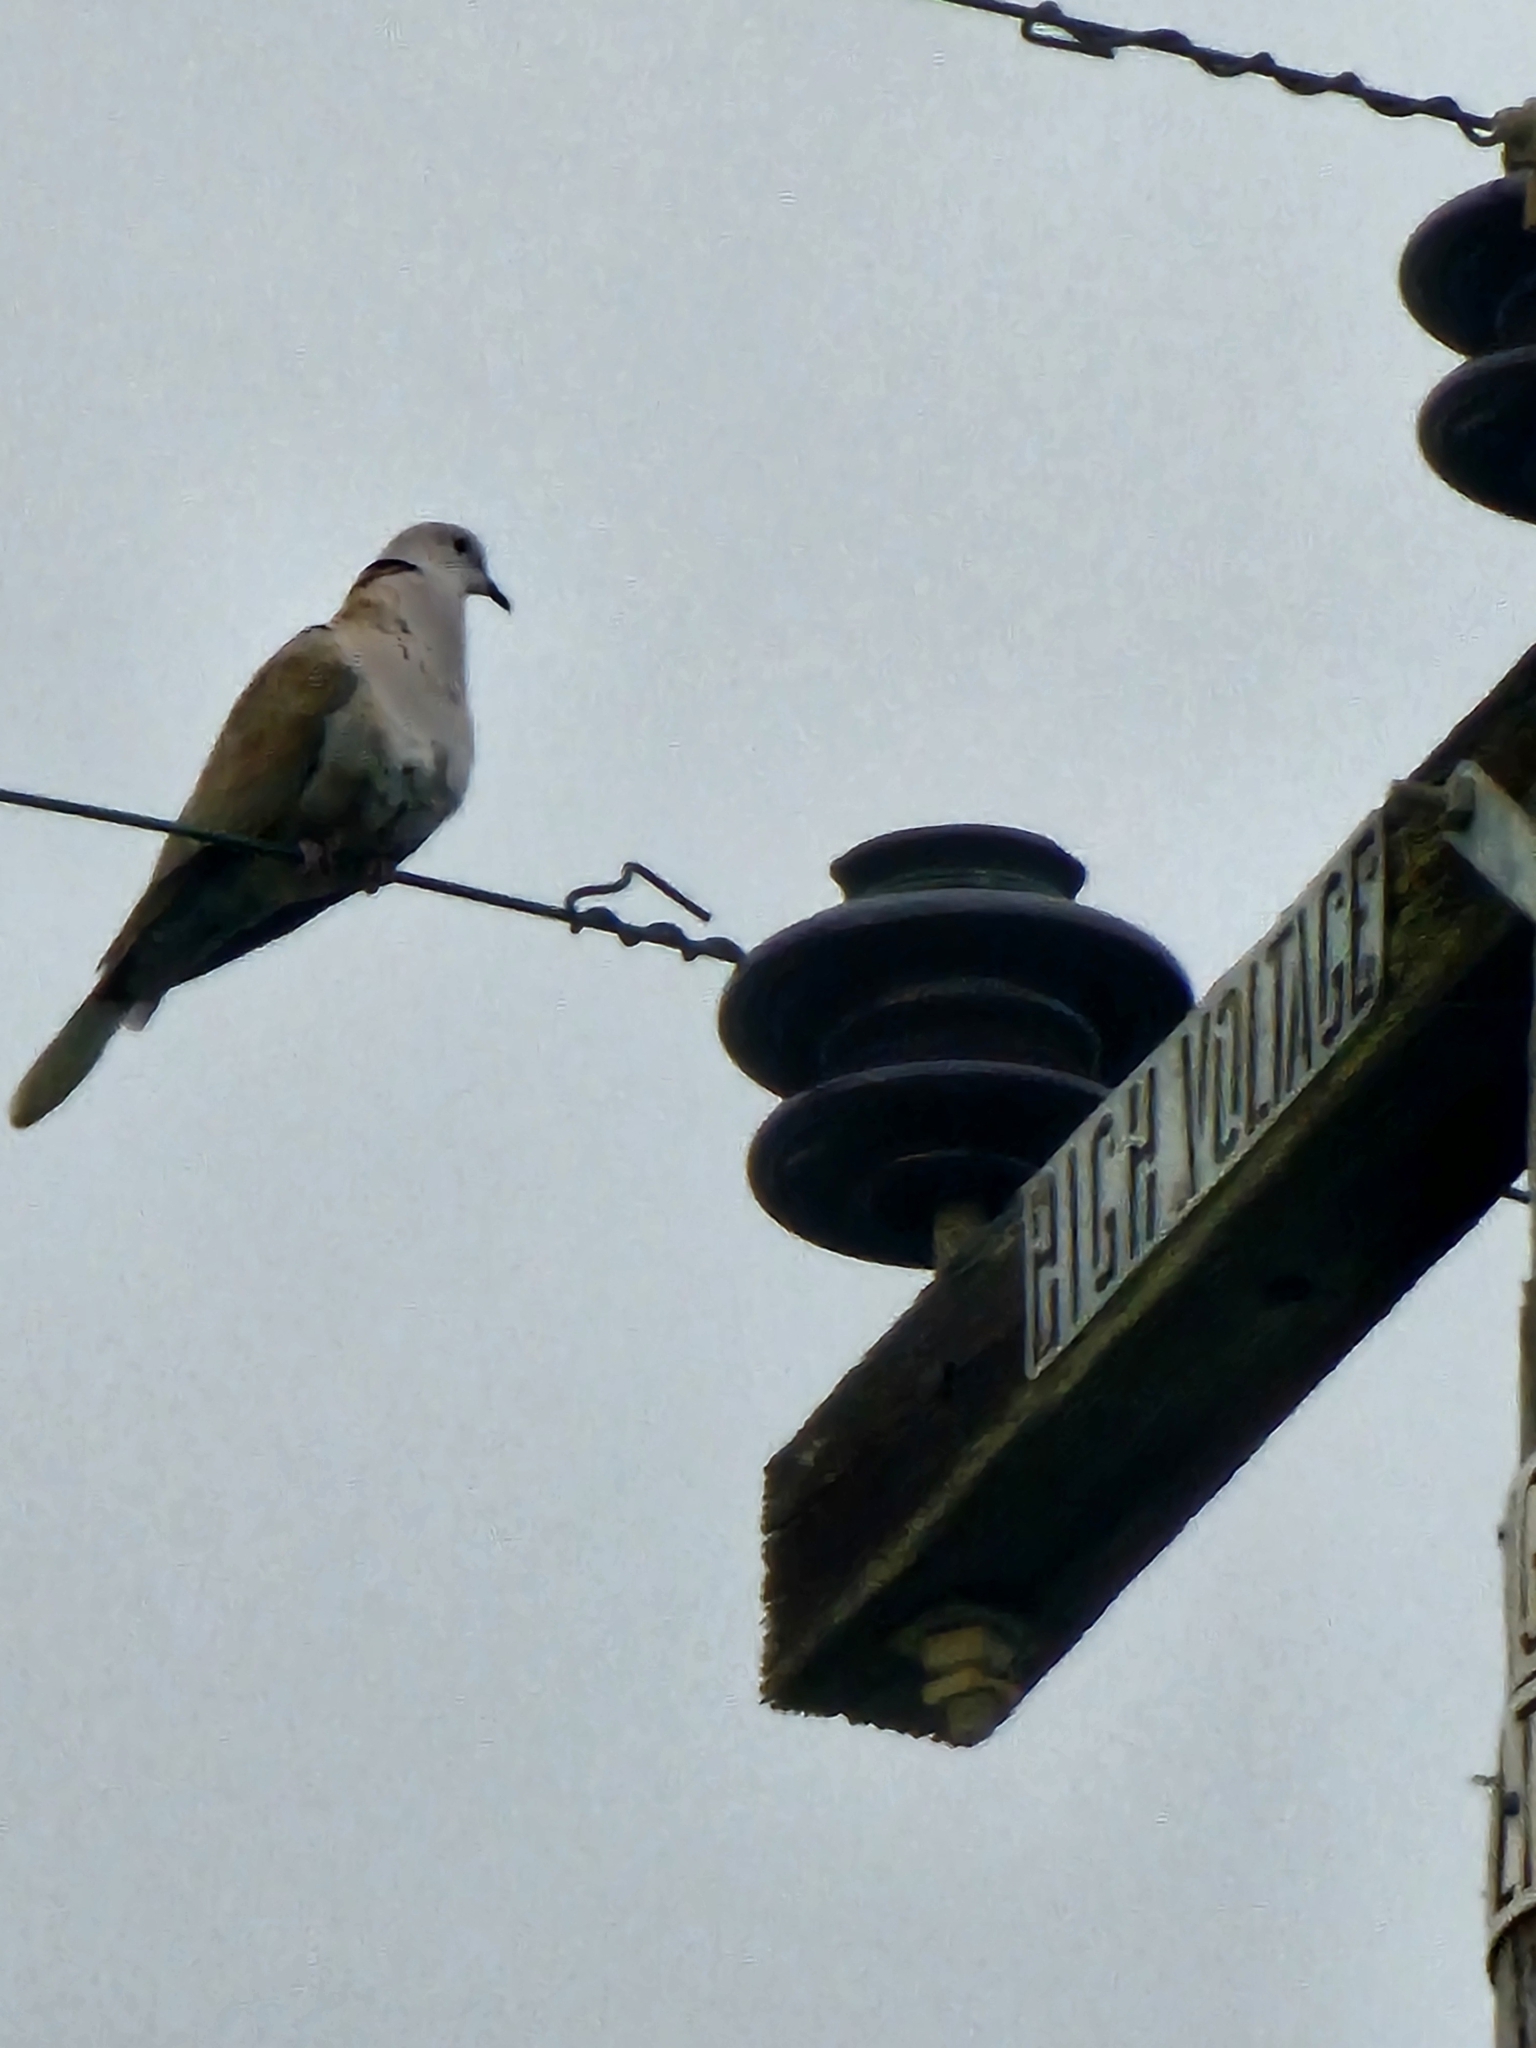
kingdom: Animalia
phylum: Chordata
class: Aves
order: Columbiformes
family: Columbidae
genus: Streptopelia
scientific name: Streptopelia decaocto
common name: Eurasian collared dove
